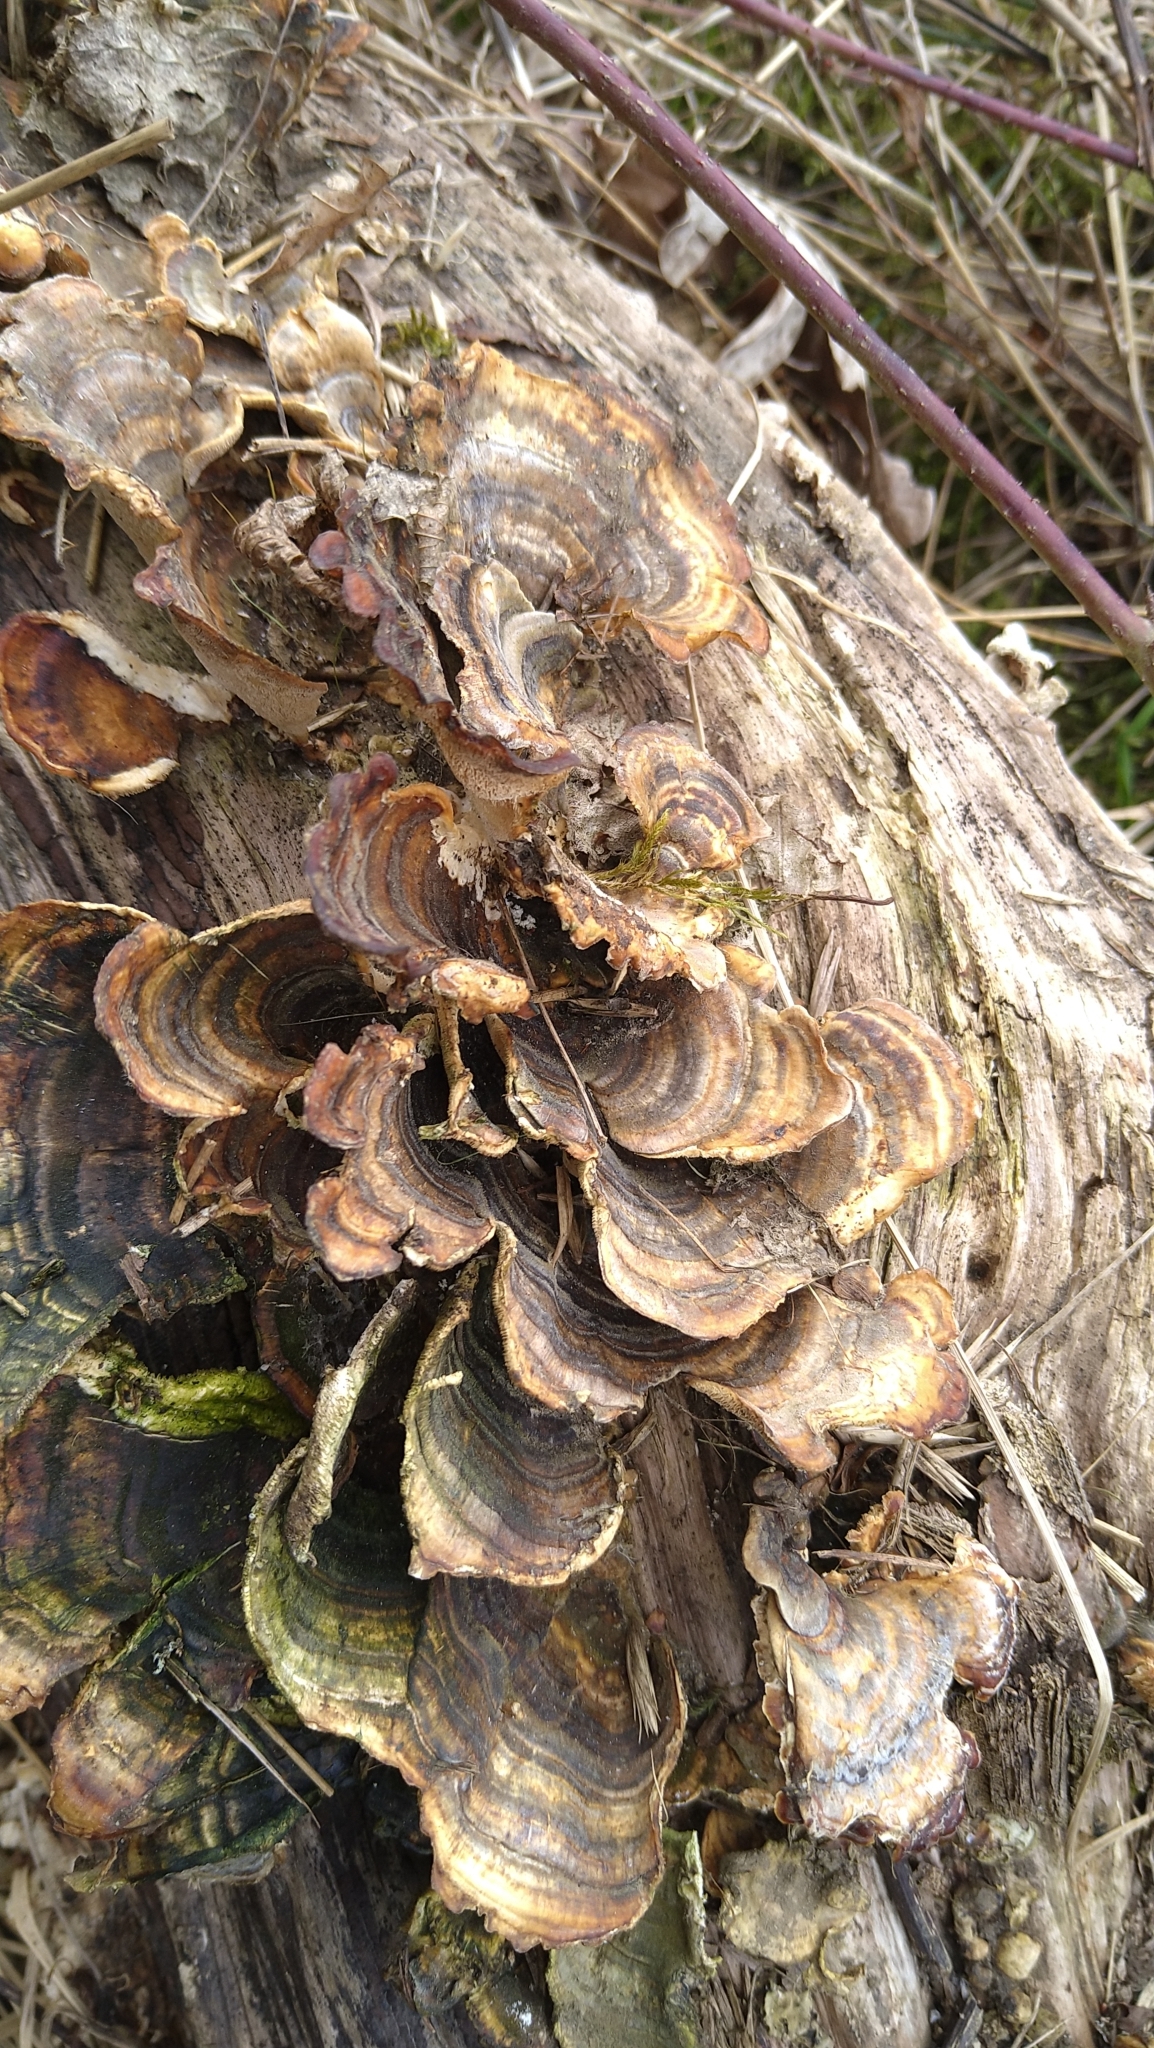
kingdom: Fungi
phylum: Basidiomycota
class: Agaricomycetes
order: Polyporales
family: Polyporaceae
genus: Trametes
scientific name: Trametes versicolor
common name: Turkeytail
